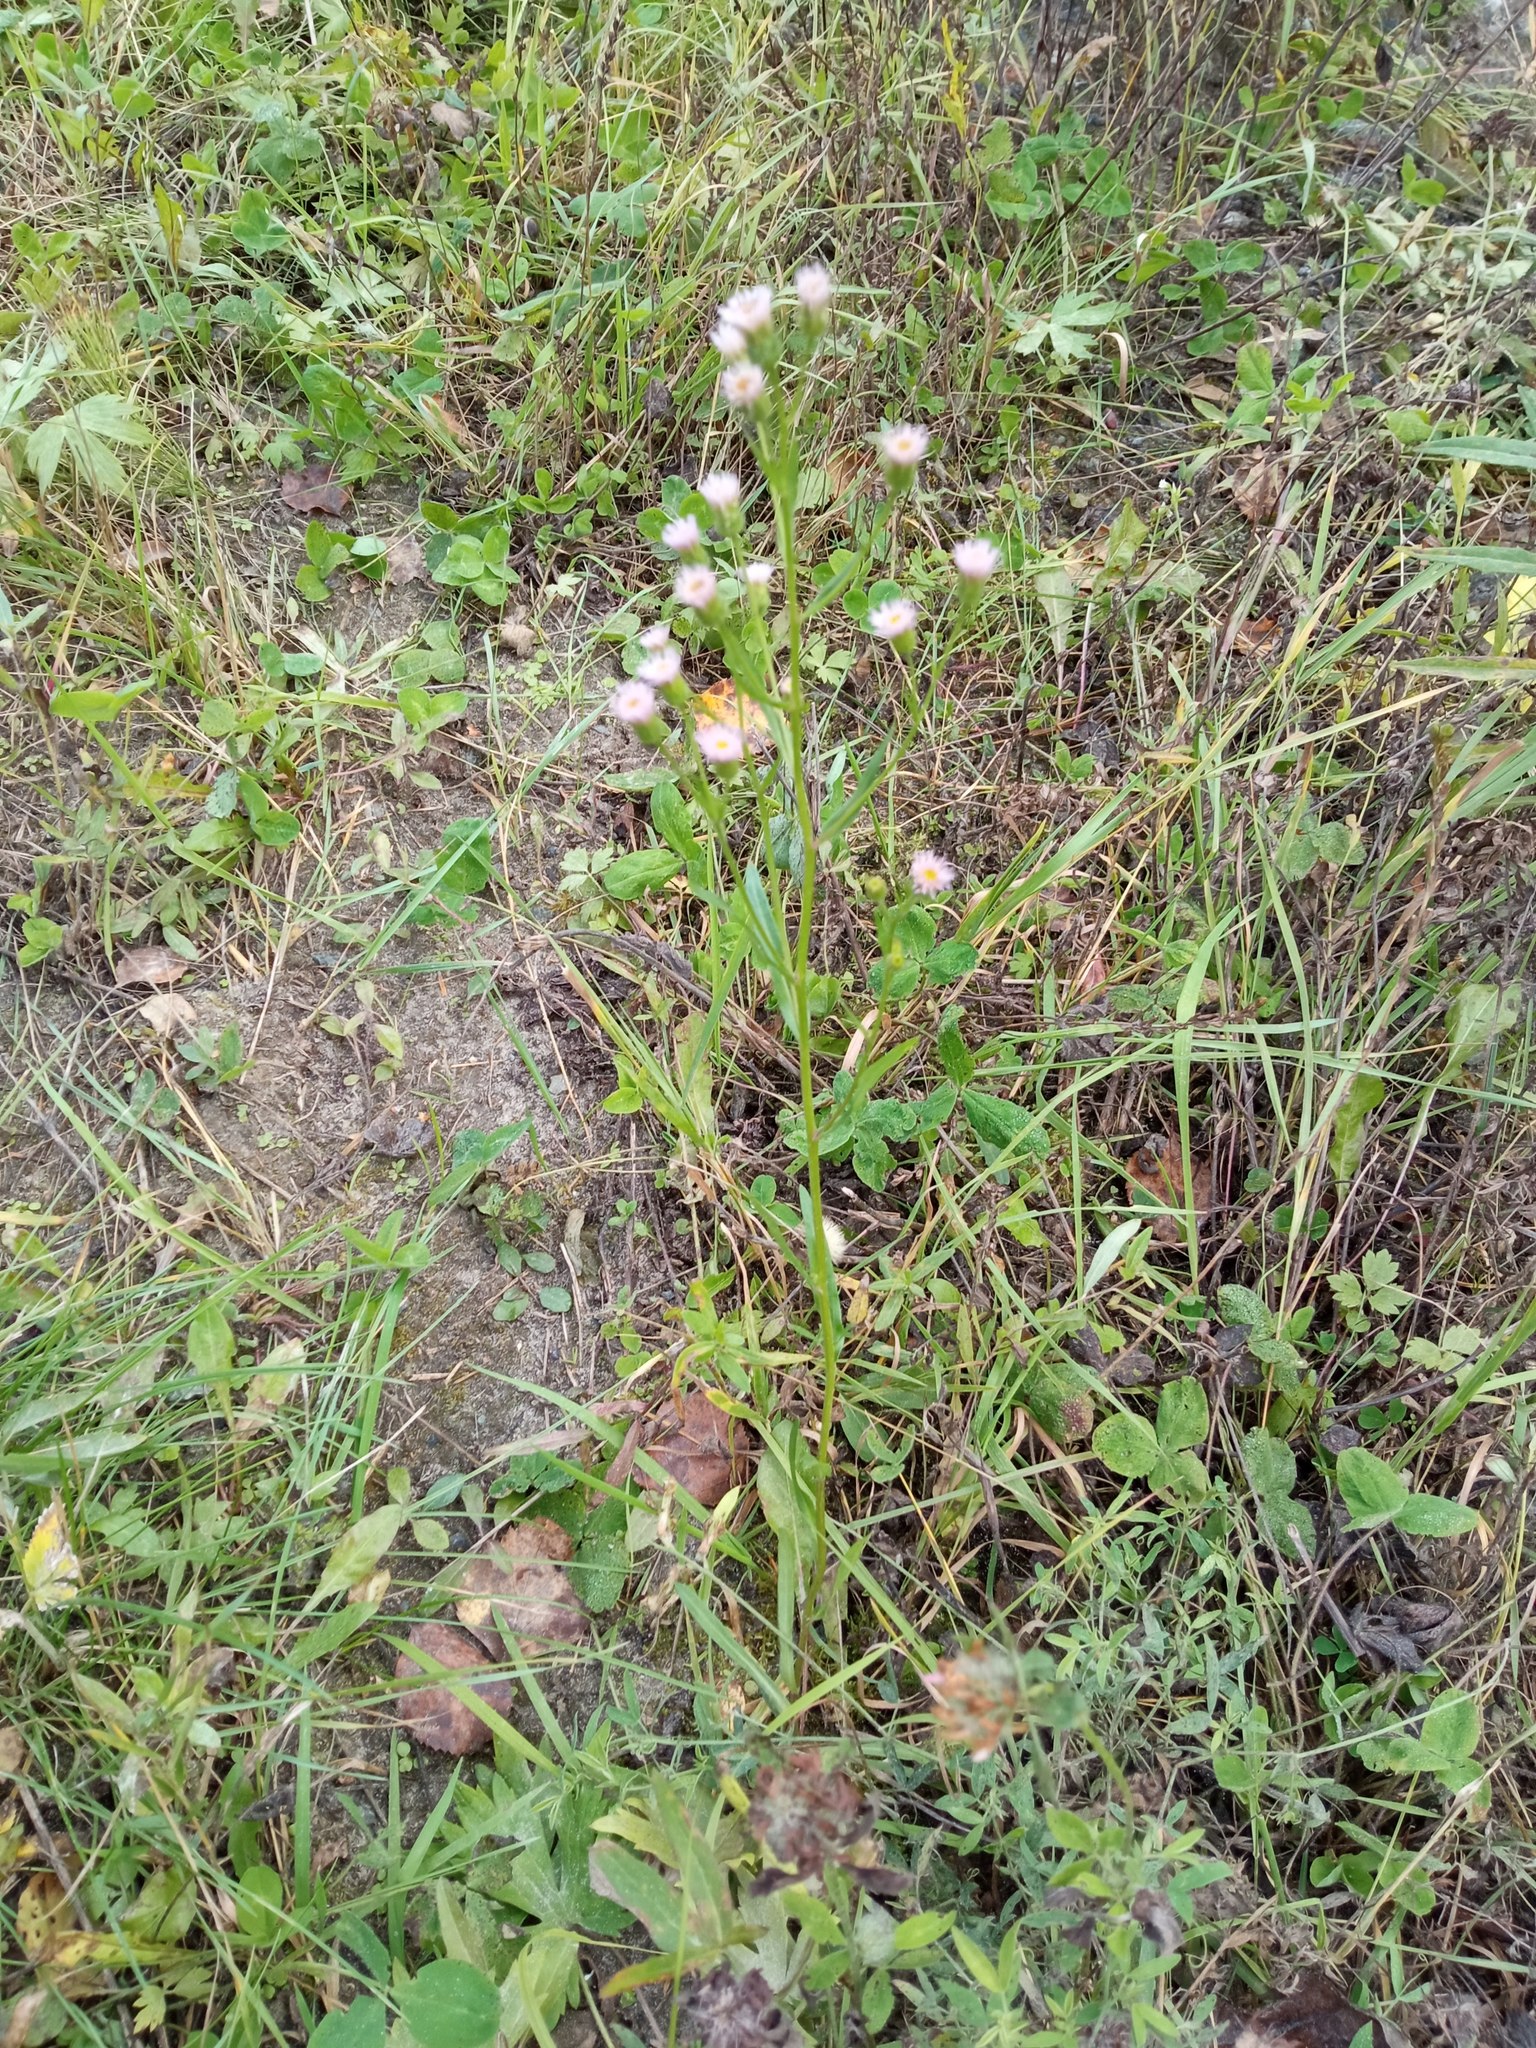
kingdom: Plantae
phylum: Tracheophyta
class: Magnoliopsida
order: Asterales
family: Asteraceae
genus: Erigeron
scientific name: Erigeron acris
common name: Blue fleabane
